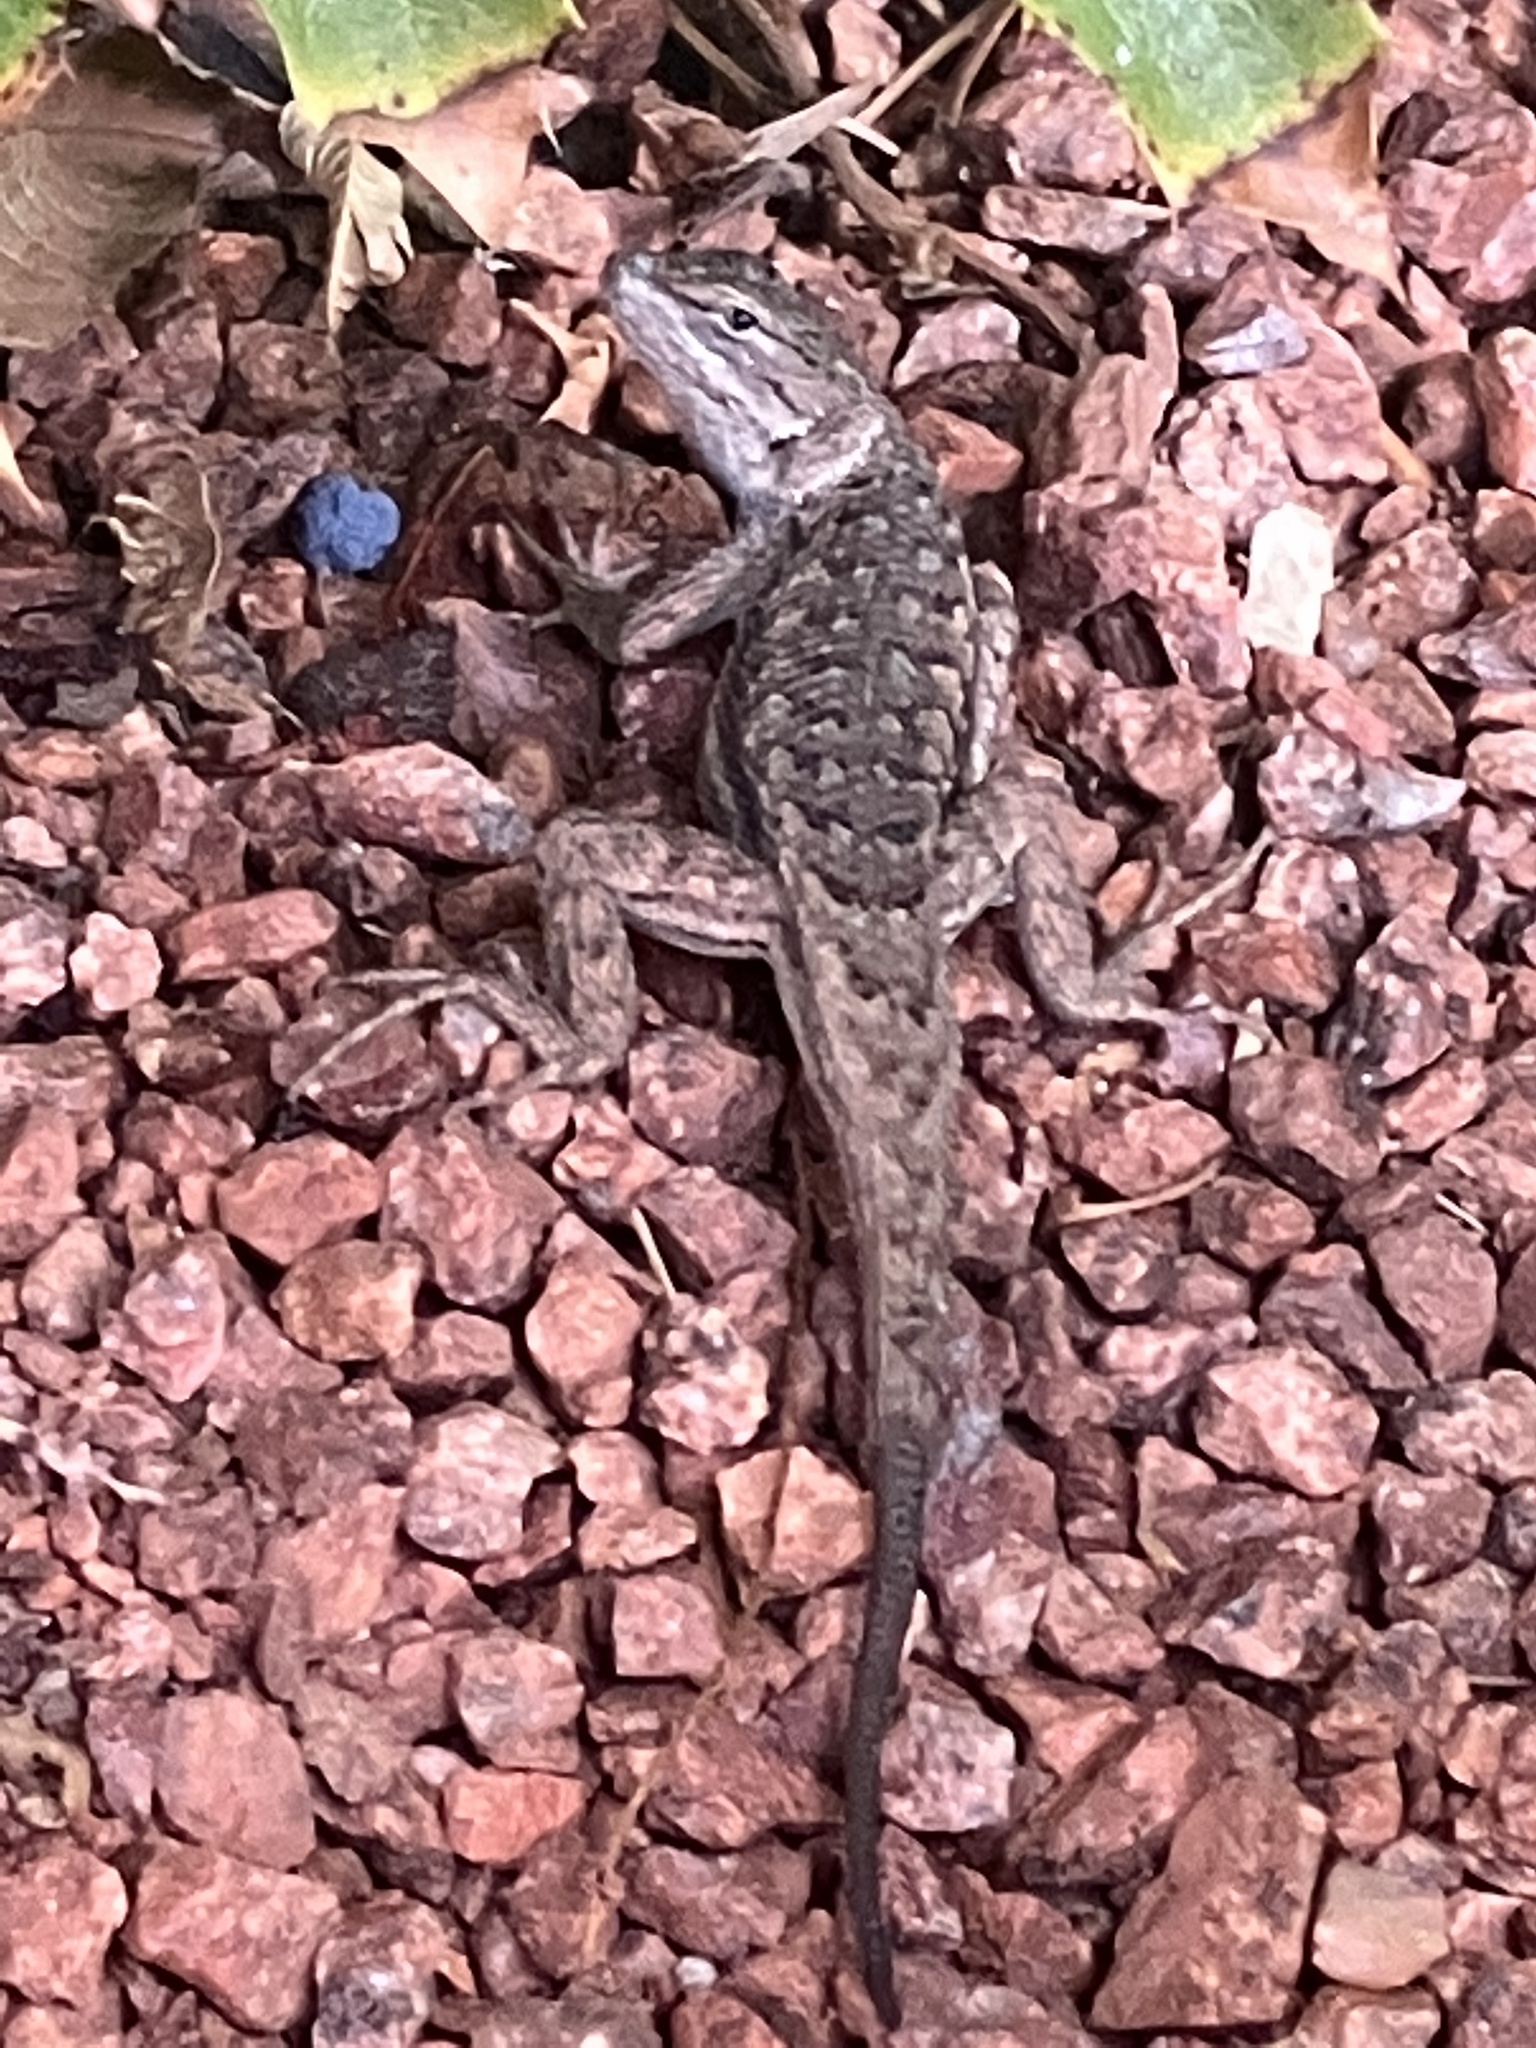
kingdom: Animalia
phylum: Chordata
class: Squamata
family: Phrynosomatidae
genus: Sceloporus
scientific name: Sceloporus tristichus
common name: Plateau fence lizard
